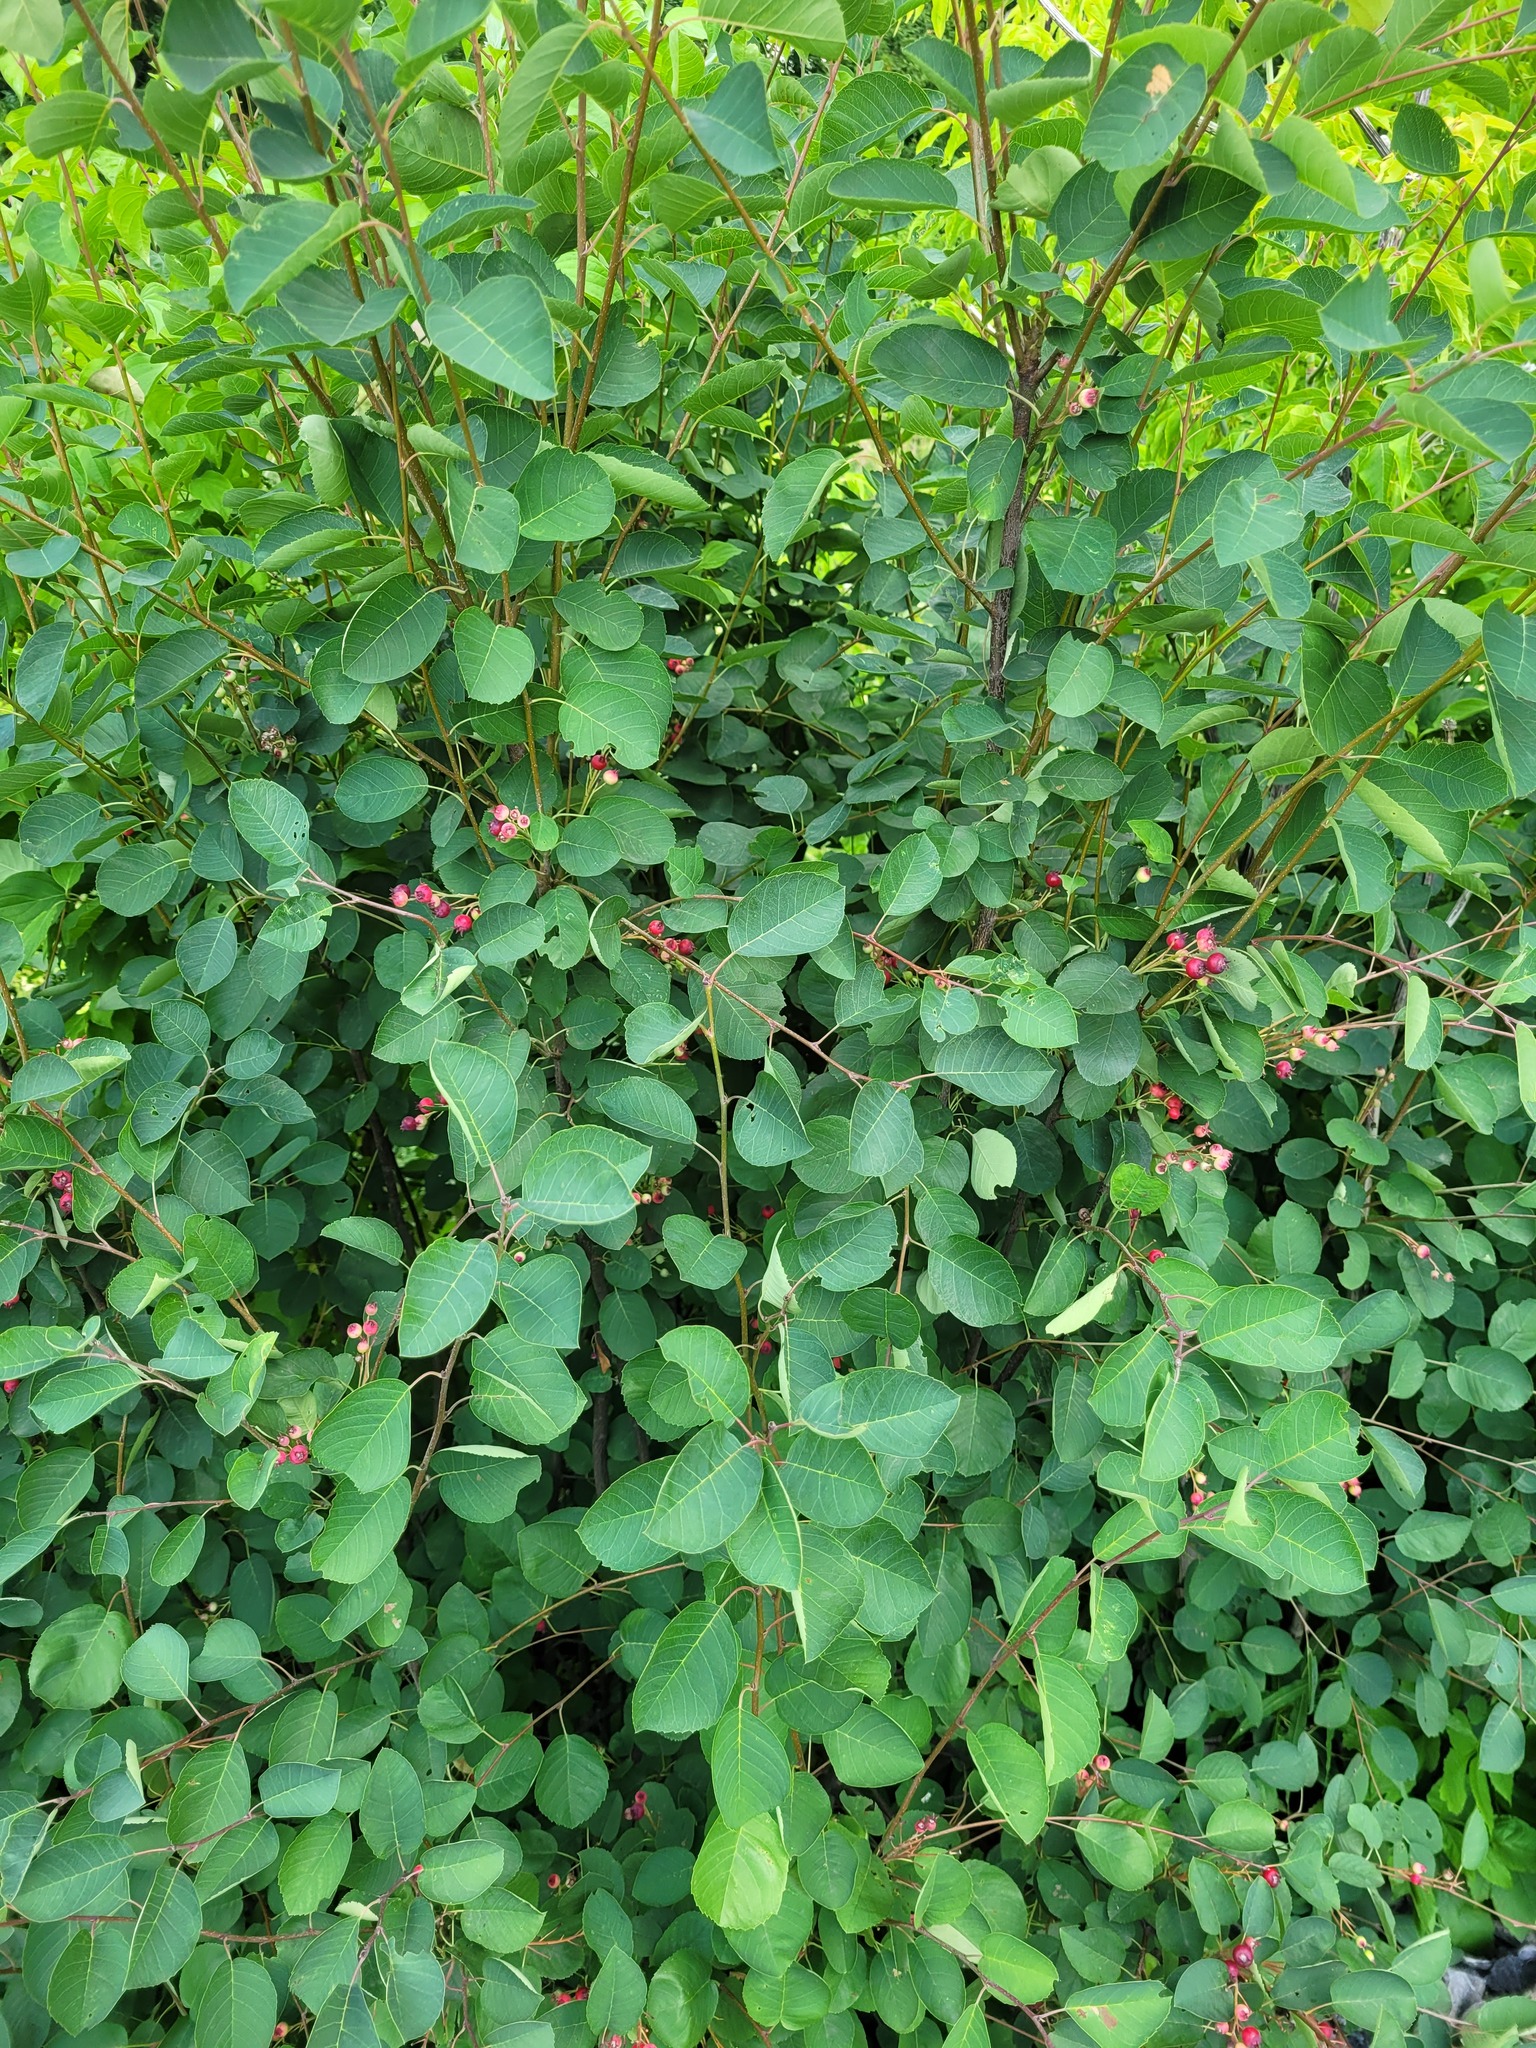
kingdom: Plantae
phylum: Tracheophyta
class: Magnoliopsida
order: Rosales
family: Rosaceae
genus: Amelanchier
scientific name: Amelanchier
